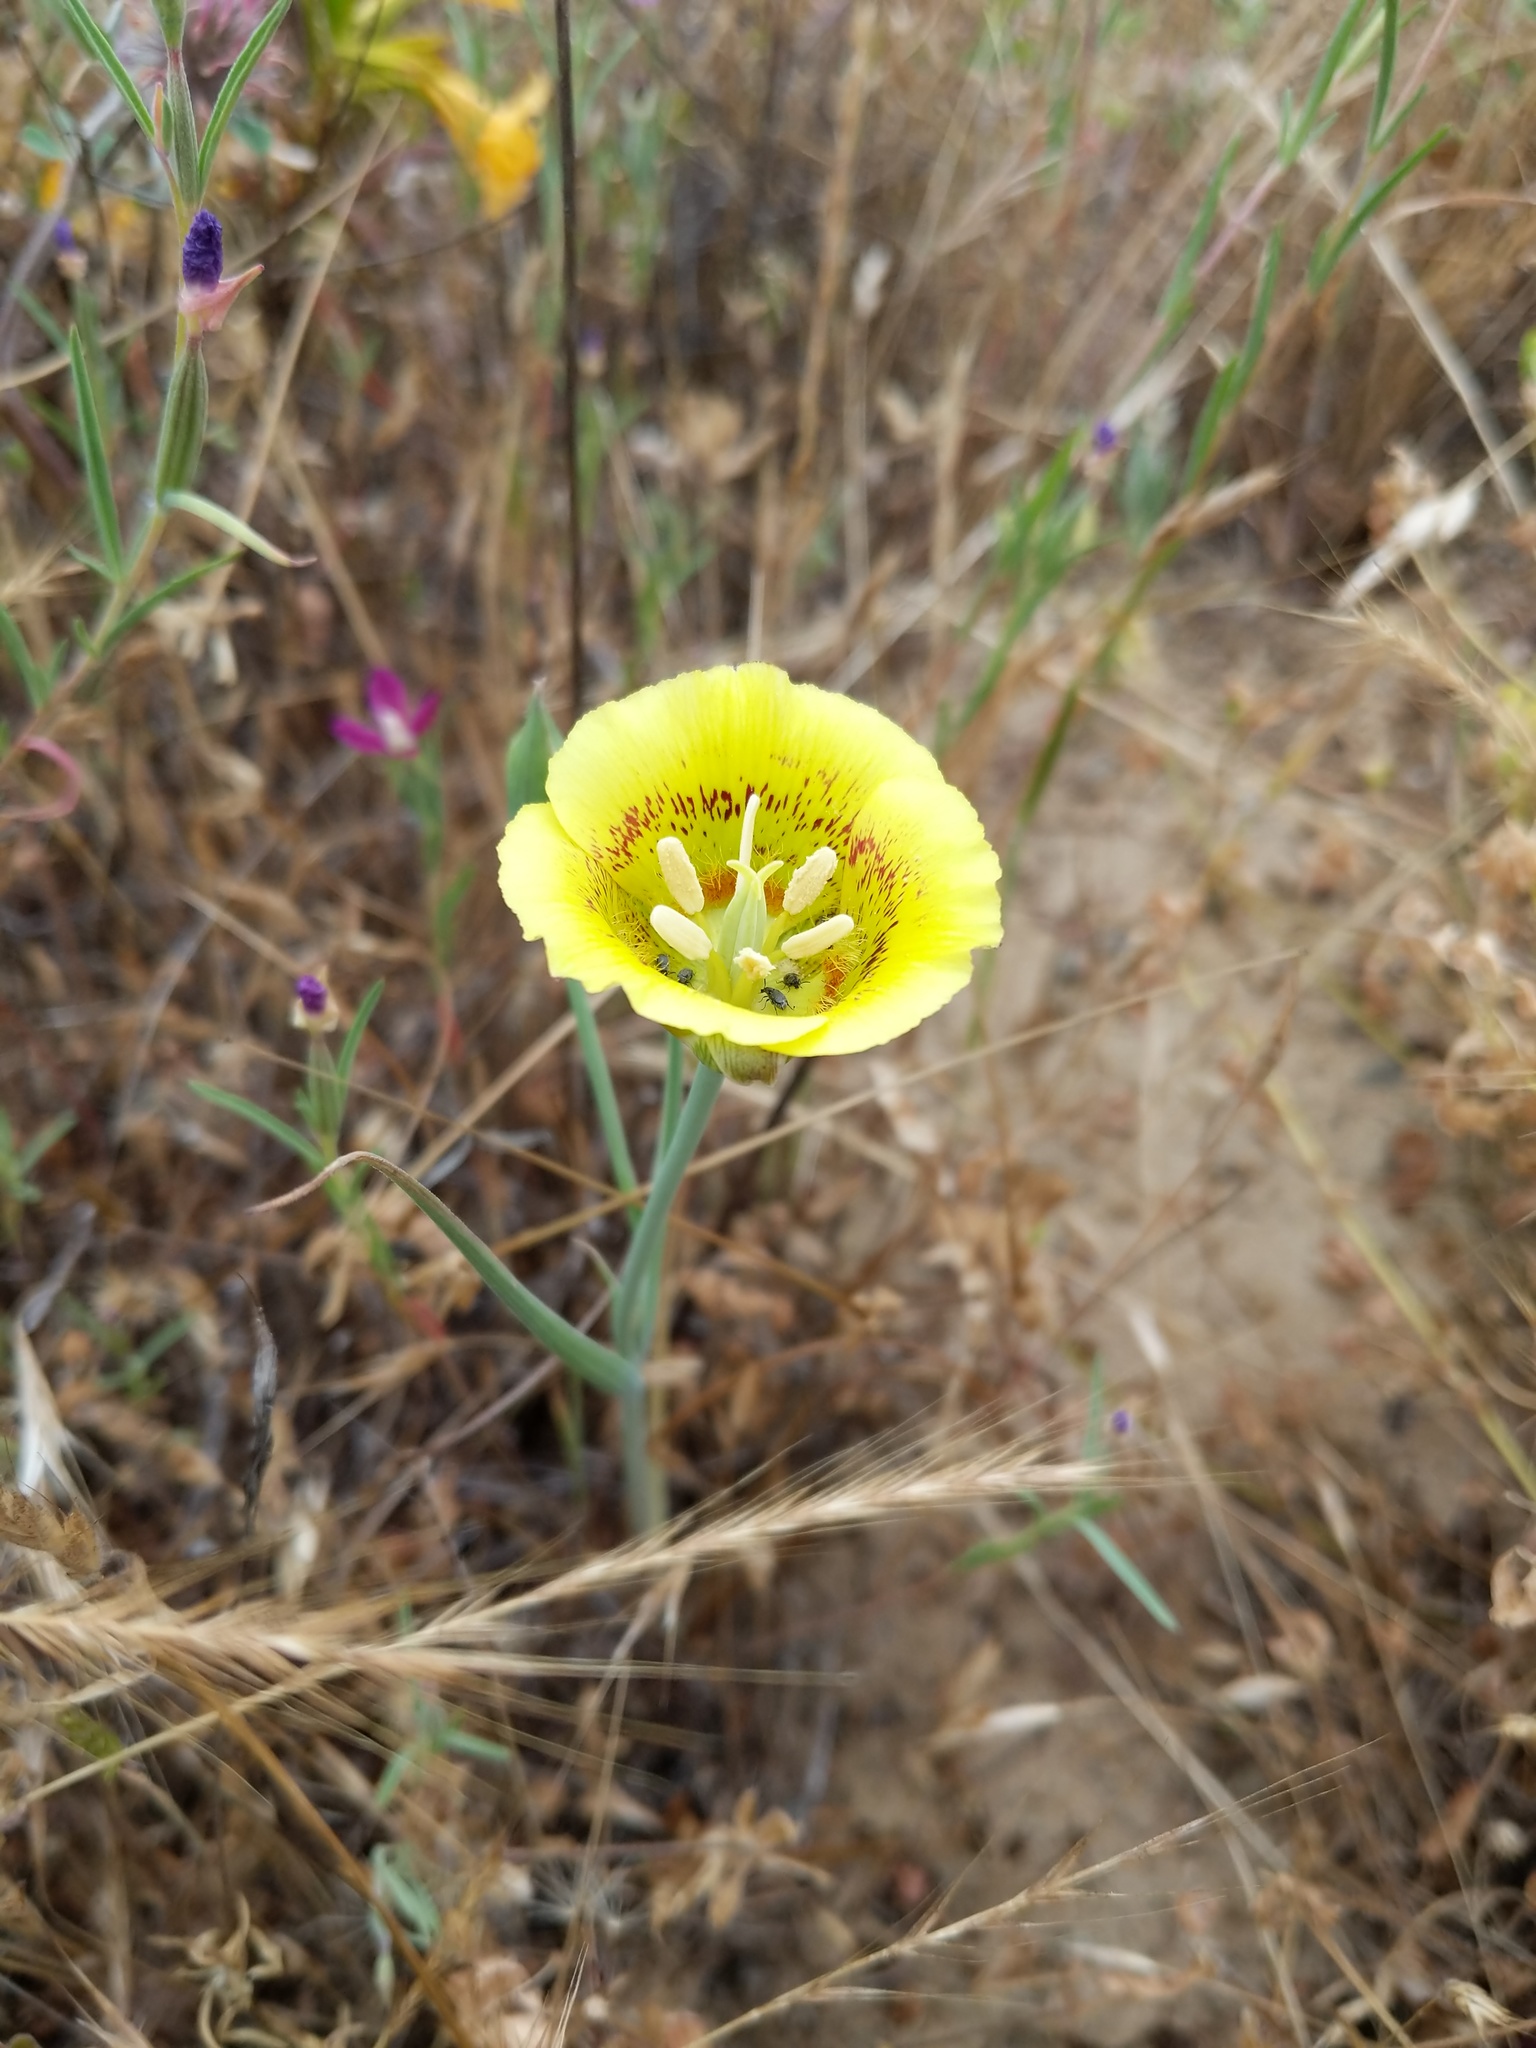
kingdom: Plantae
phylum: Tracheophyta
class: Liliopsida
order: Liliales
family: Liliaceae
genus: Calochortus
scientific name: Calochortus luteus
